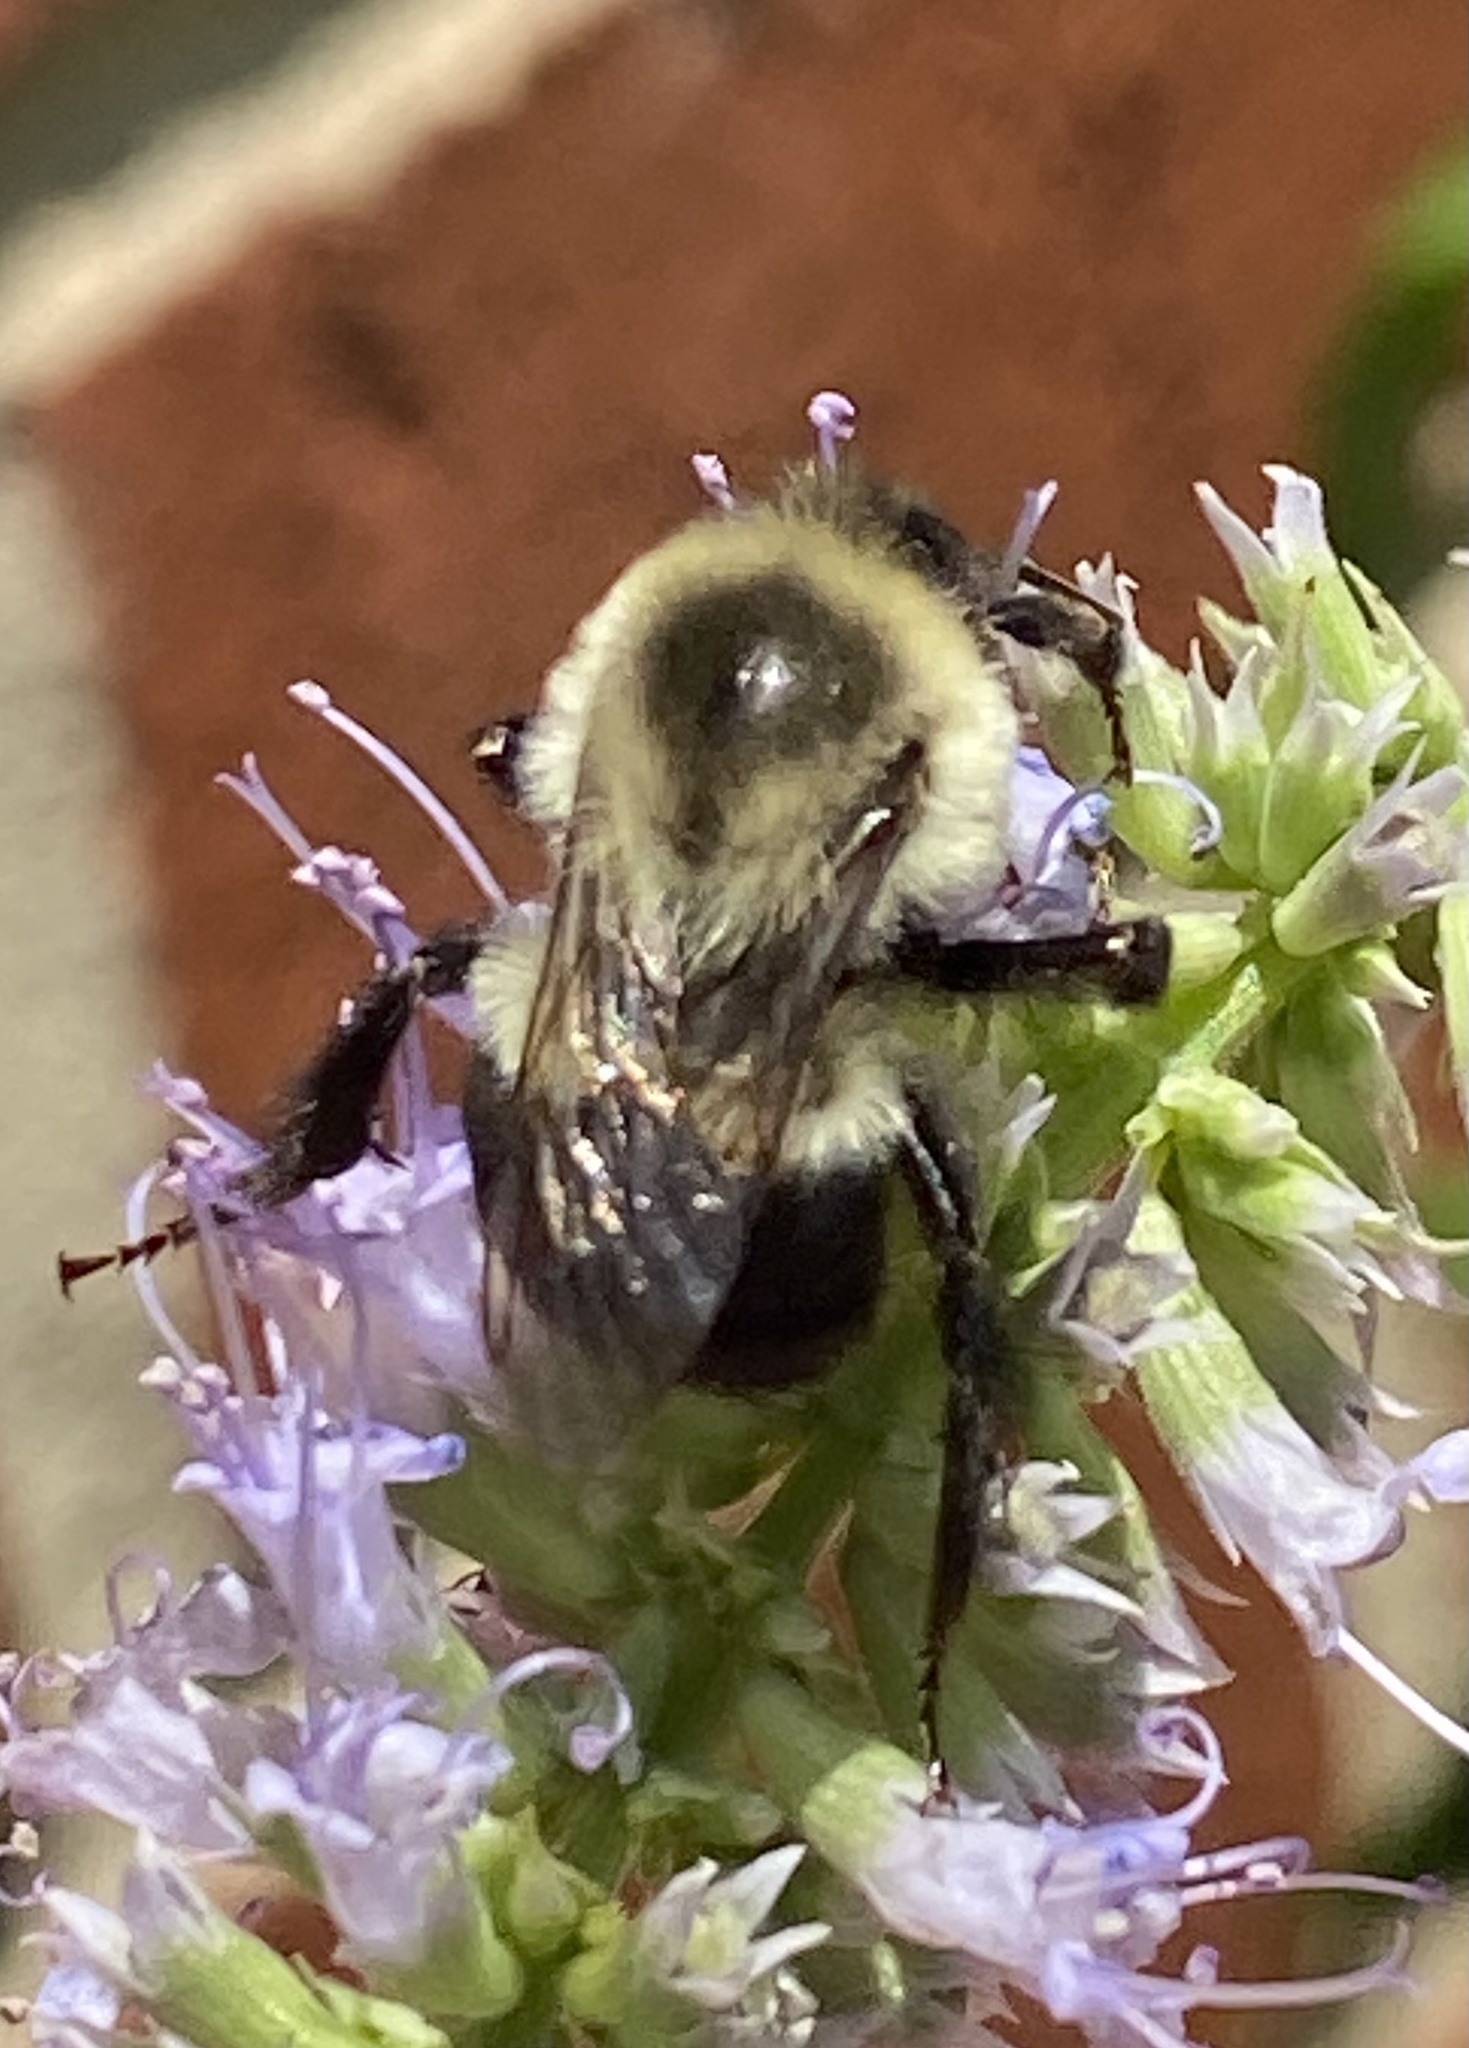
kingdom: Animalia
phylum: Arthropoda
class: Insecta
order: Hymenoptera
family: Apidae
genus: Bombus
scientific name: Bombus impatiens
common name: Common eastern bumble bee
